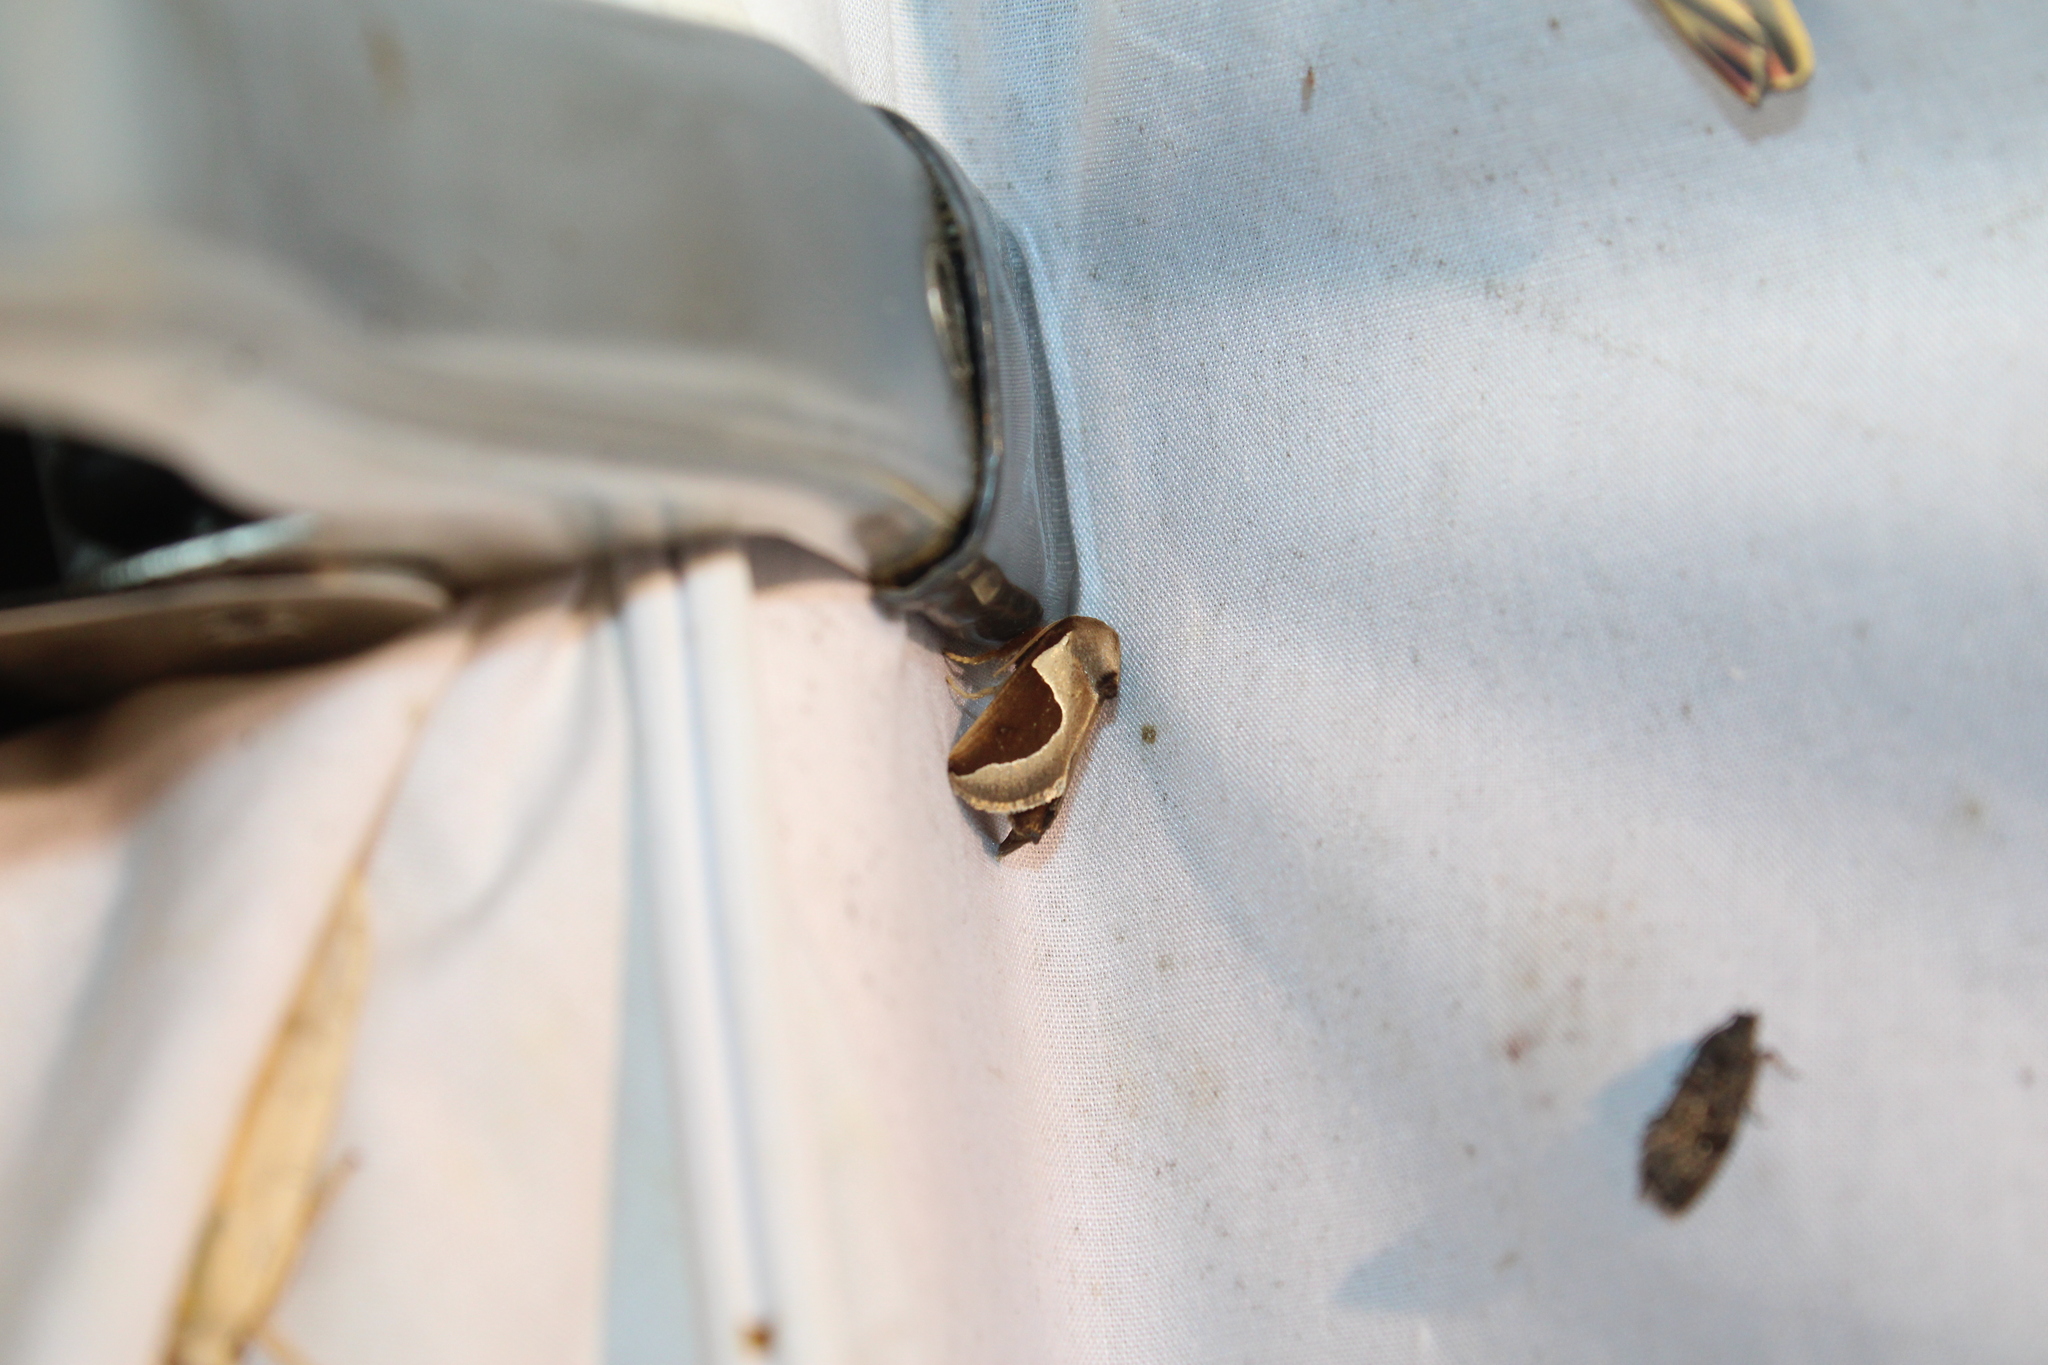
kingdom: Animalia
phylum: Arthropoda
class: Insecta
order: Lepidoptera
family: Limacodidae
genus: Prolimacodes
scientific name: Prolimacodes badia
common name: Skiff moth
